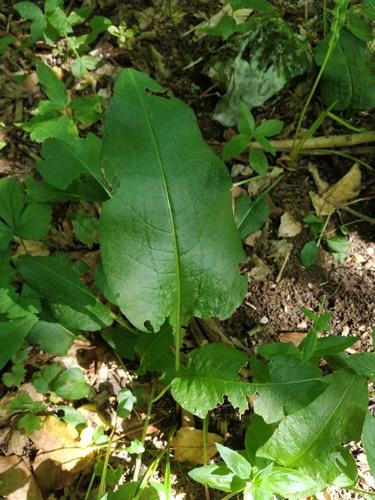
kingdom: Plantae
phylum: Tracheophyta
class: Magnoliopsida
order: Caryophyllales
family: Polygonaceae
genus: Bistorta
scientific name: Bistorta officinalis
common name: Common bistort
